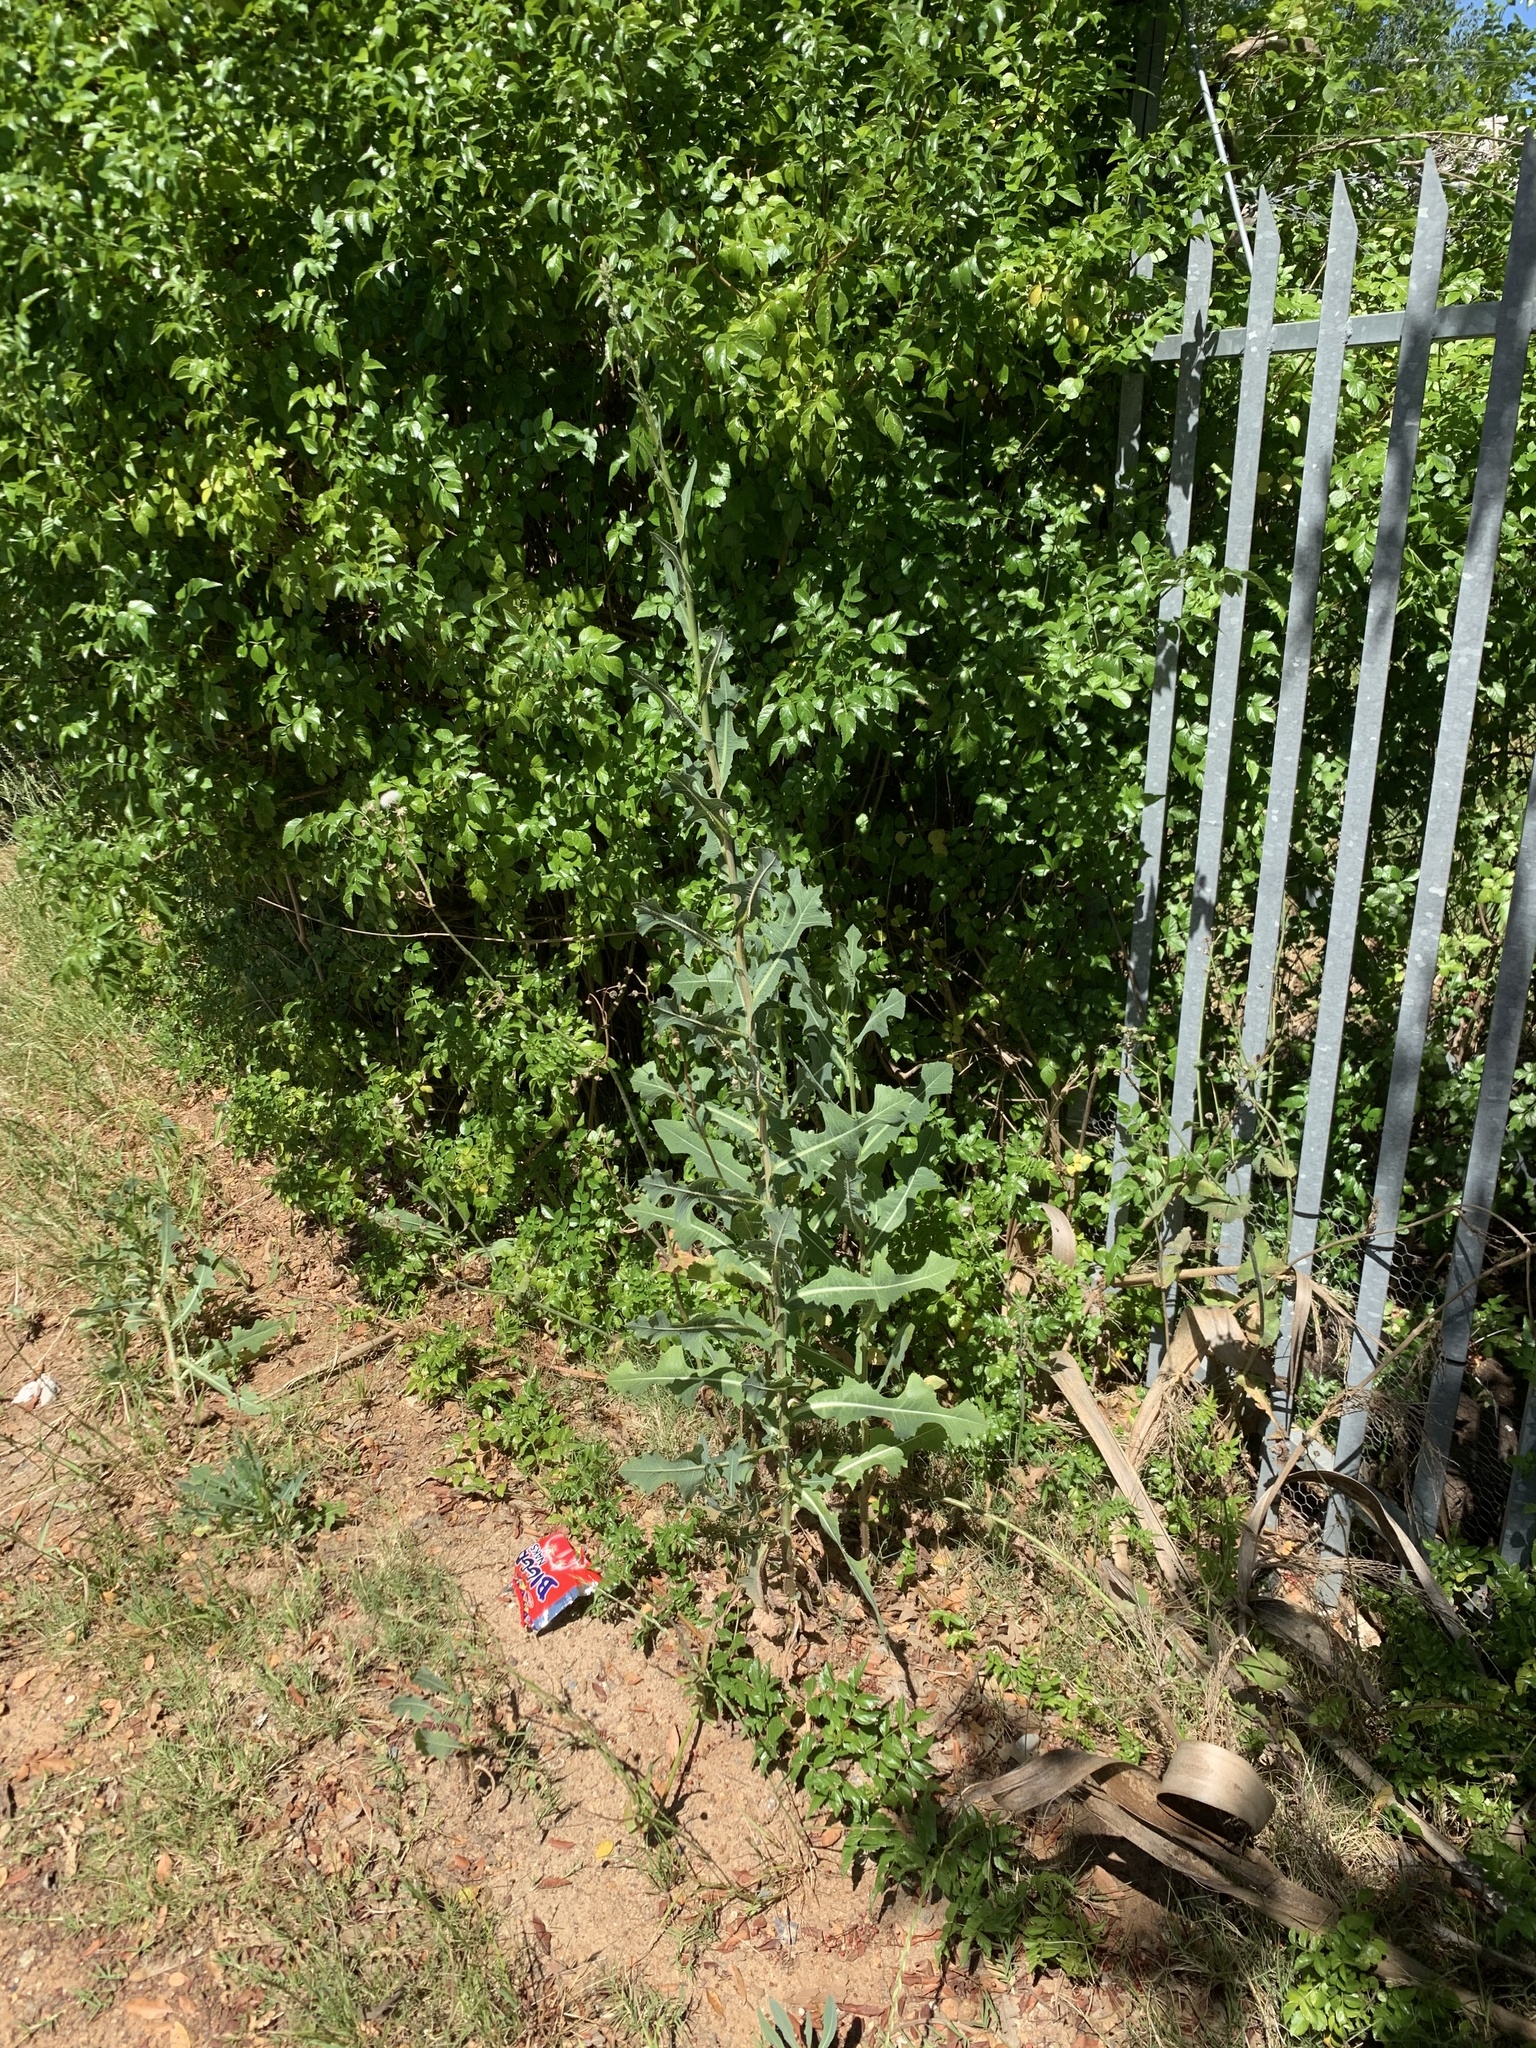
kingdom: Plantae
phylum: Tracheophyta
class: Magnoliopsida
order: Asterales
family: Asteraceae
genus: Lactuca
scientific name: Lactuca serriola
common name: Prickly lettuce
